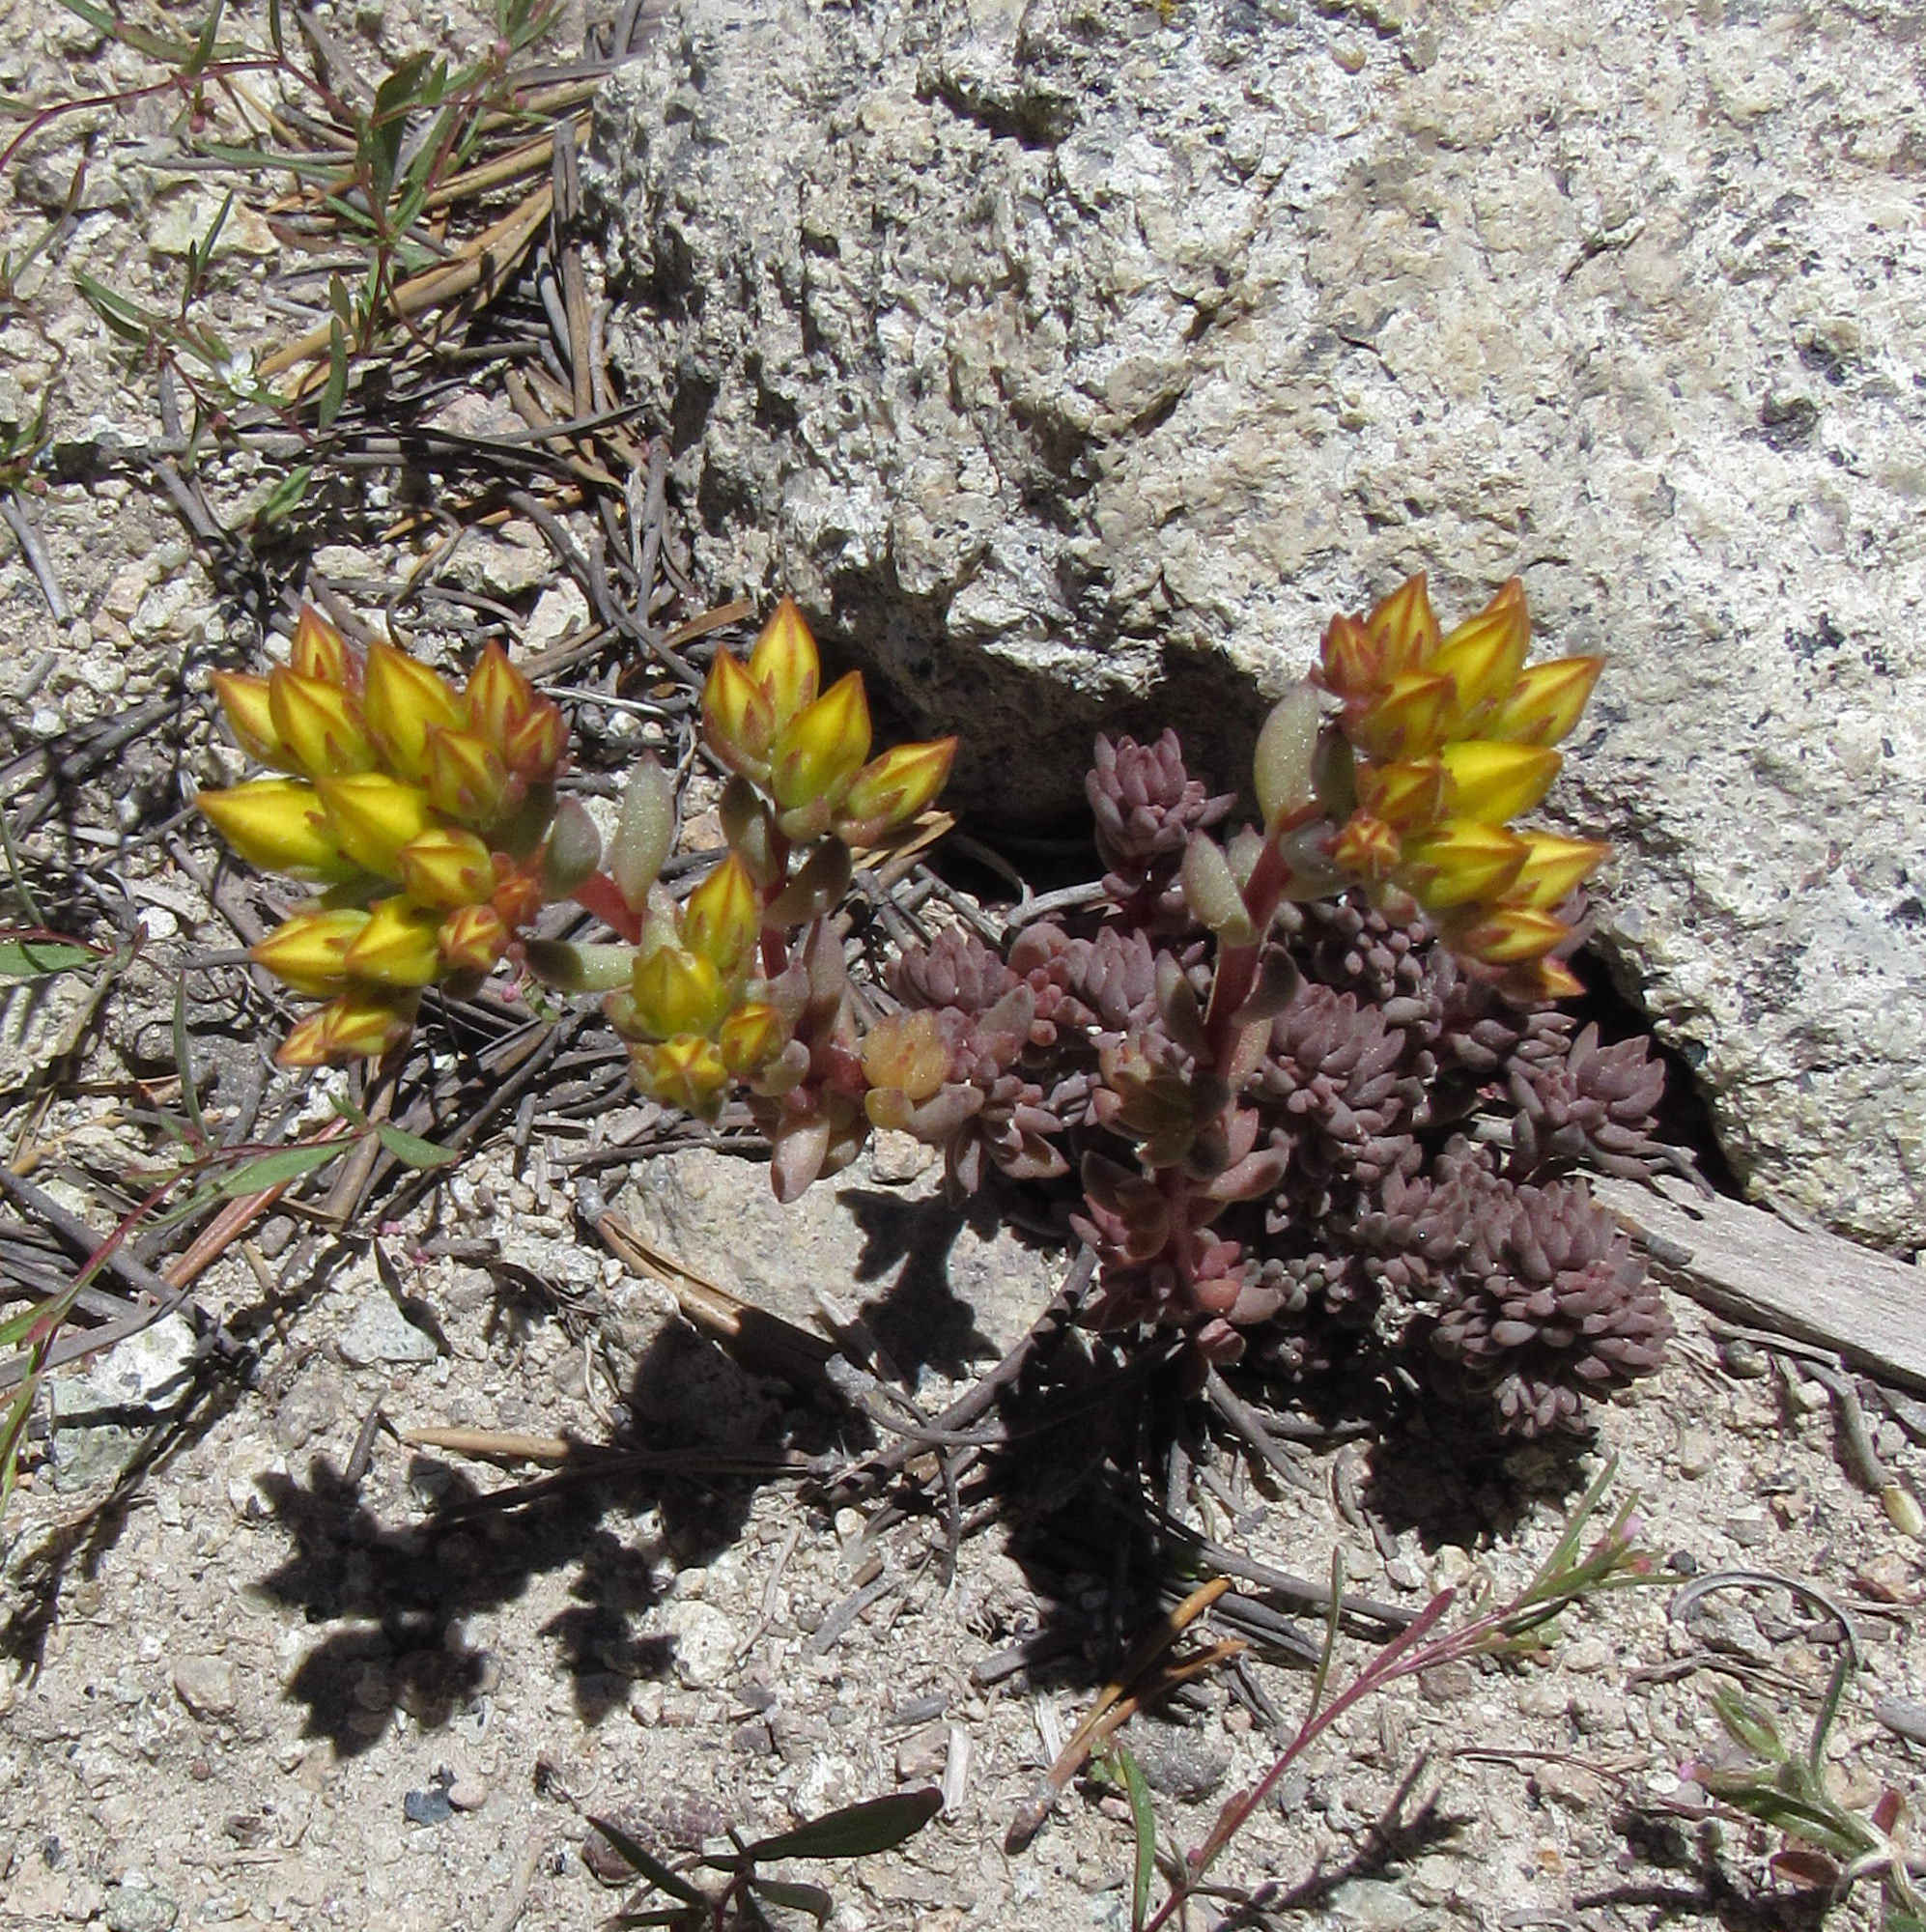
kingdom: Plantae
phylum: Tracheophyta
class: Magnoliopsida
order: Saxifragales
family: Crassulaceae
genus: Sedum
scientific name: Sedum lanceolatum
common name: Common stonecrop
